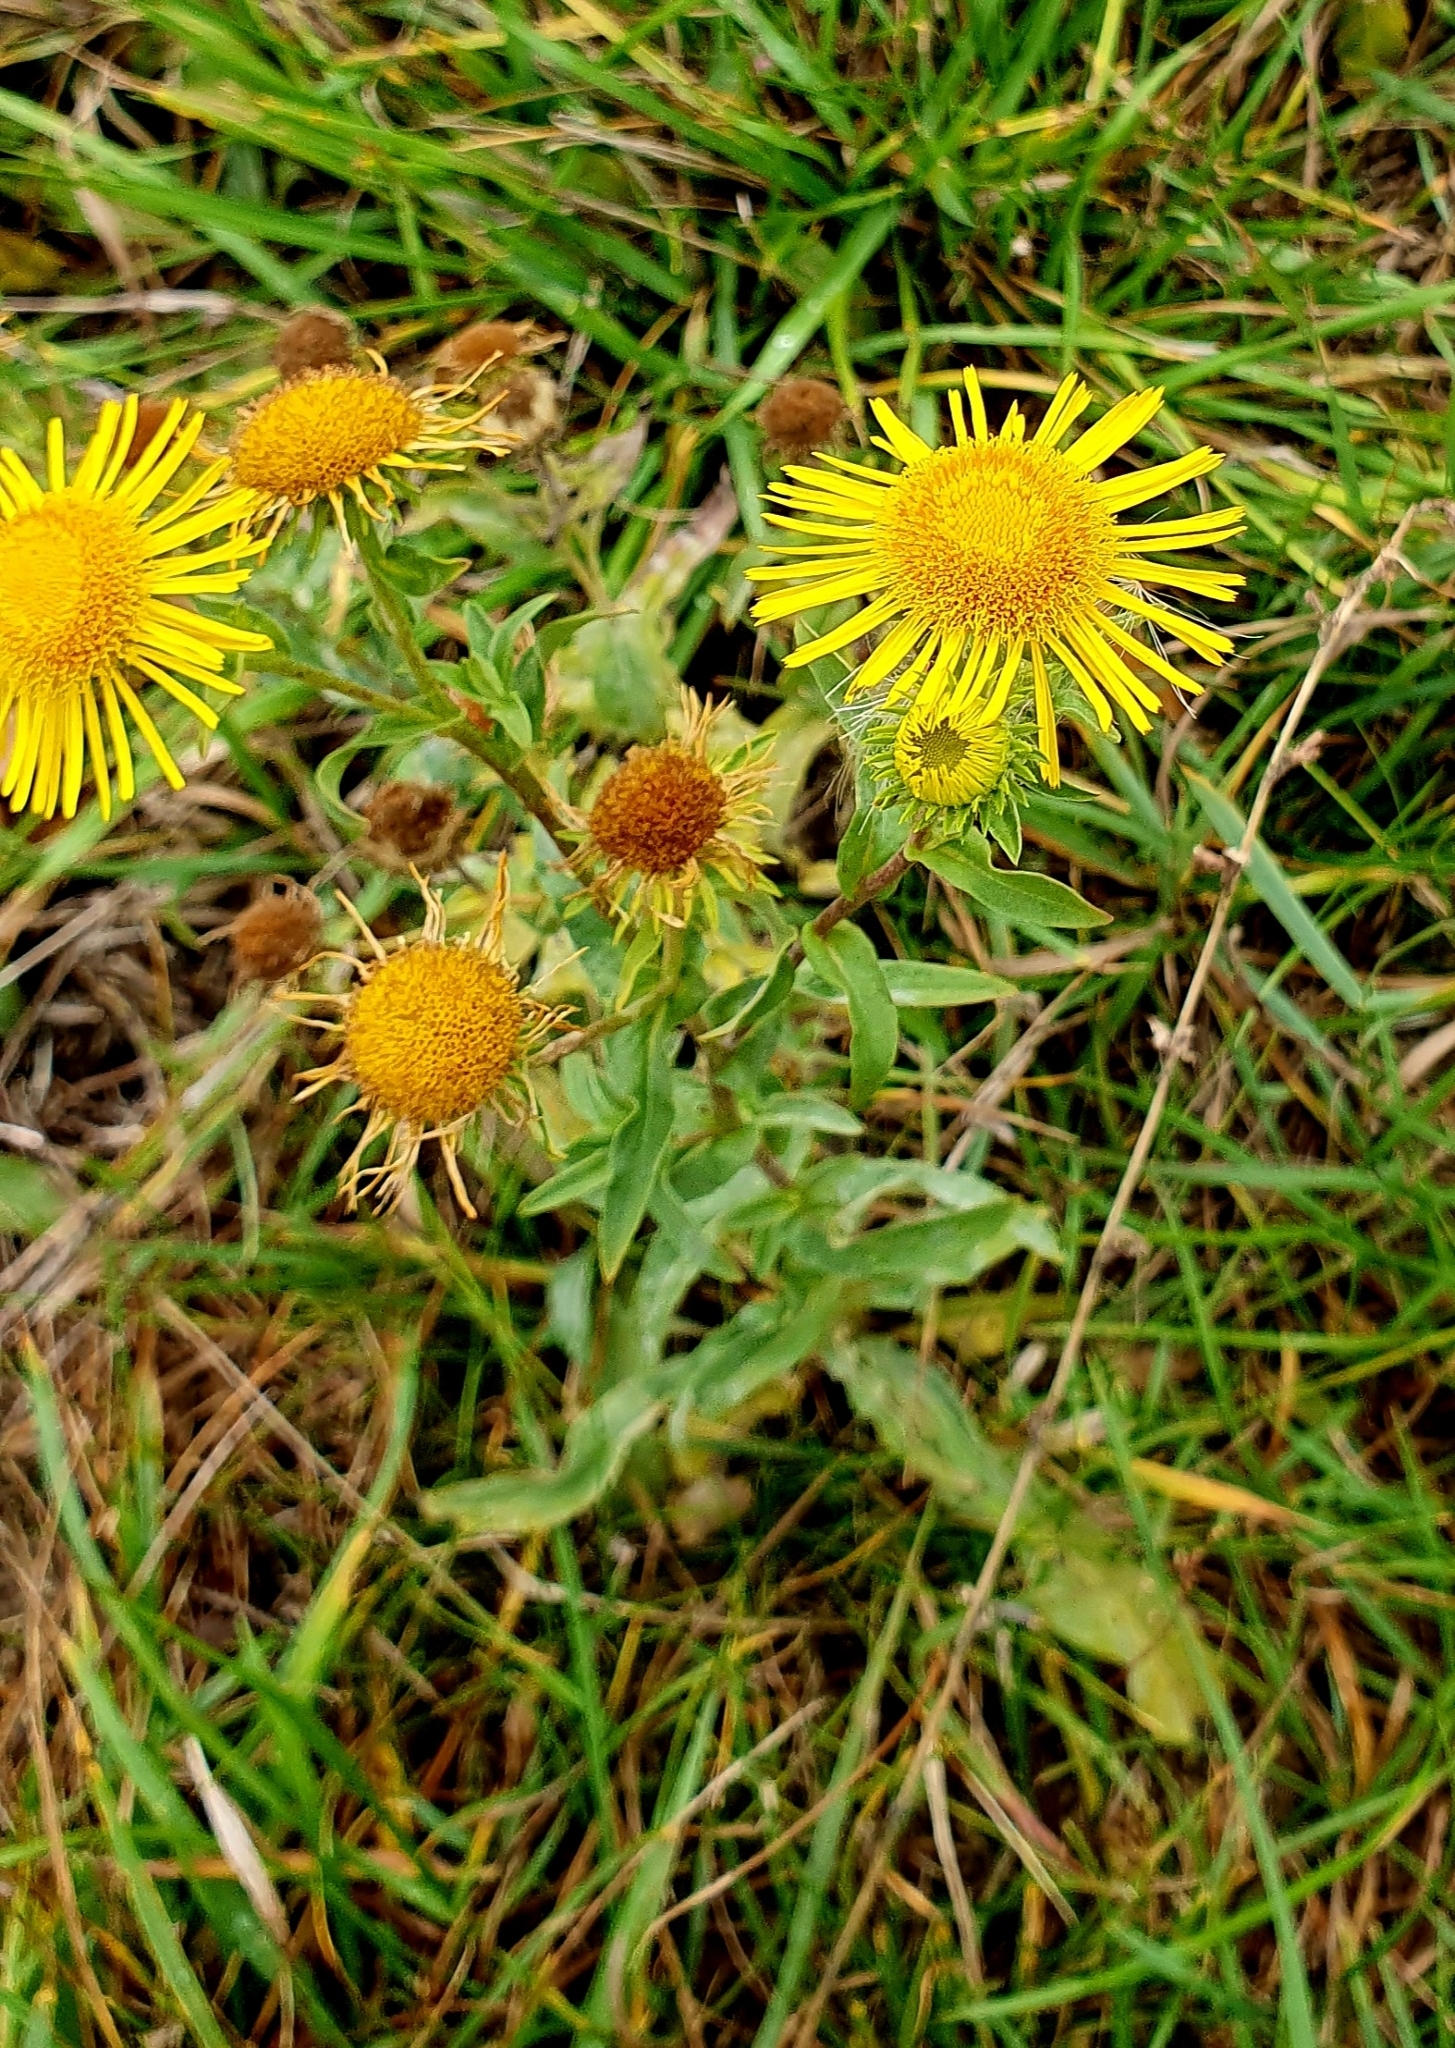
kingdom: Plantae
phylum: Tracheophyta
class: Magnoliopsida
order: Asterales
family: Asteraceae
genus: Pentanema
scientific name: Pentanema britannicum
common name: British elecampane
